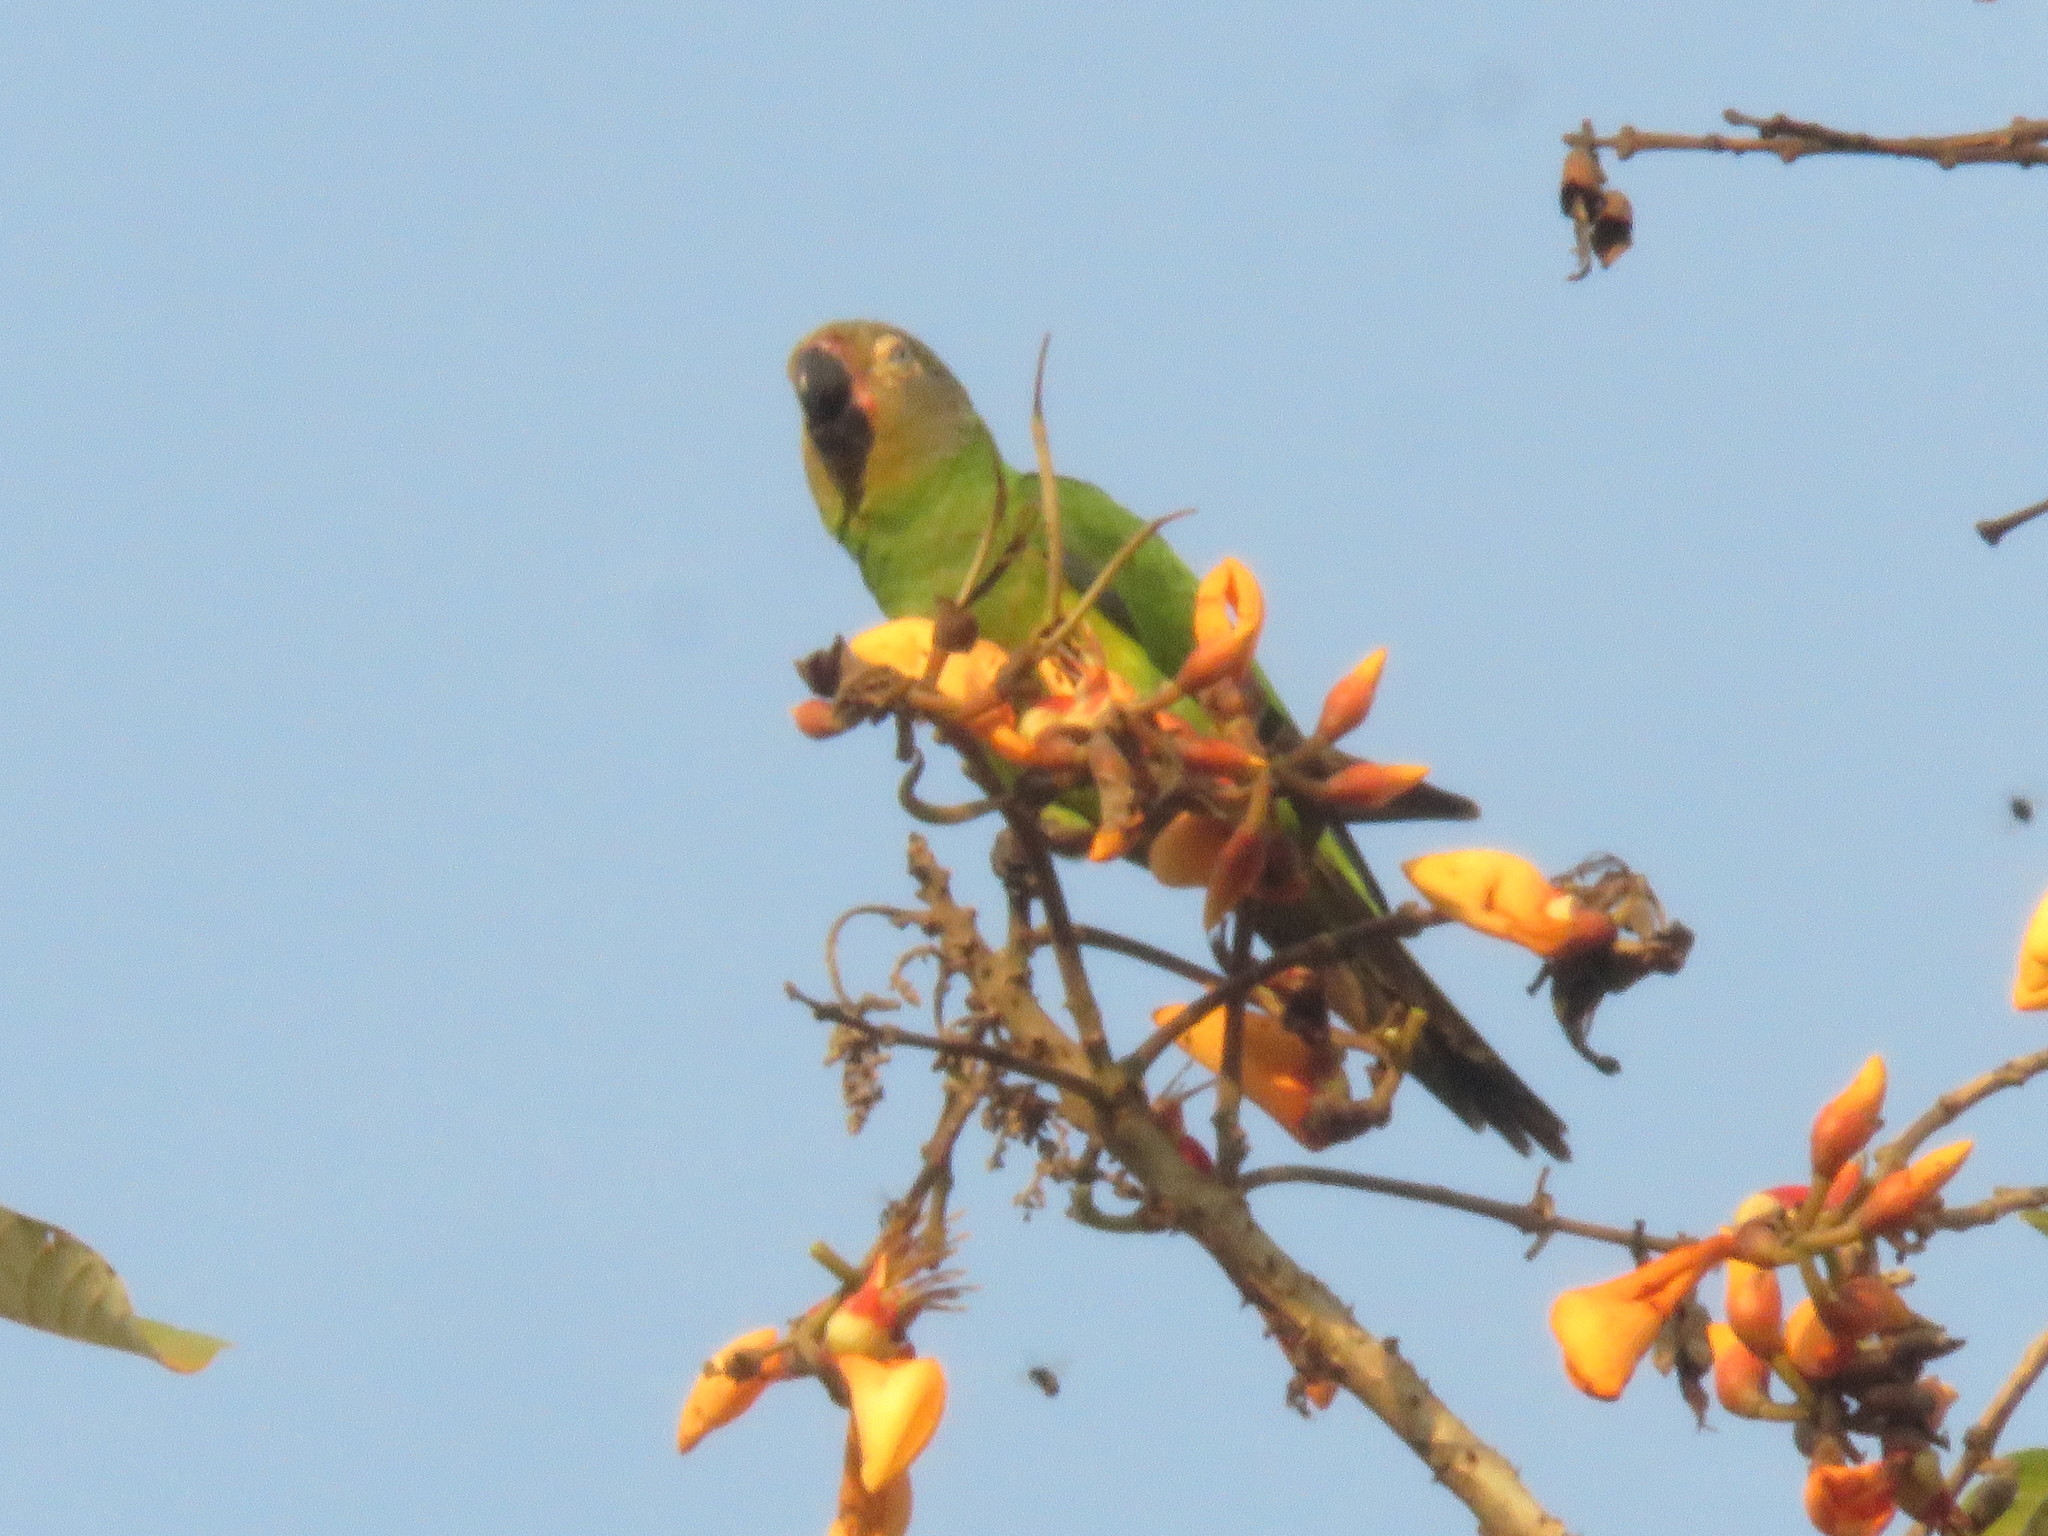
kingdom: Animalia
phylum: Chordata
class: Aves
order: Psittaciformes
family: Psittacidae
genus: Aratinga
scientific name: Aratinga weddellii
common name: Dusky-headed parakeet
